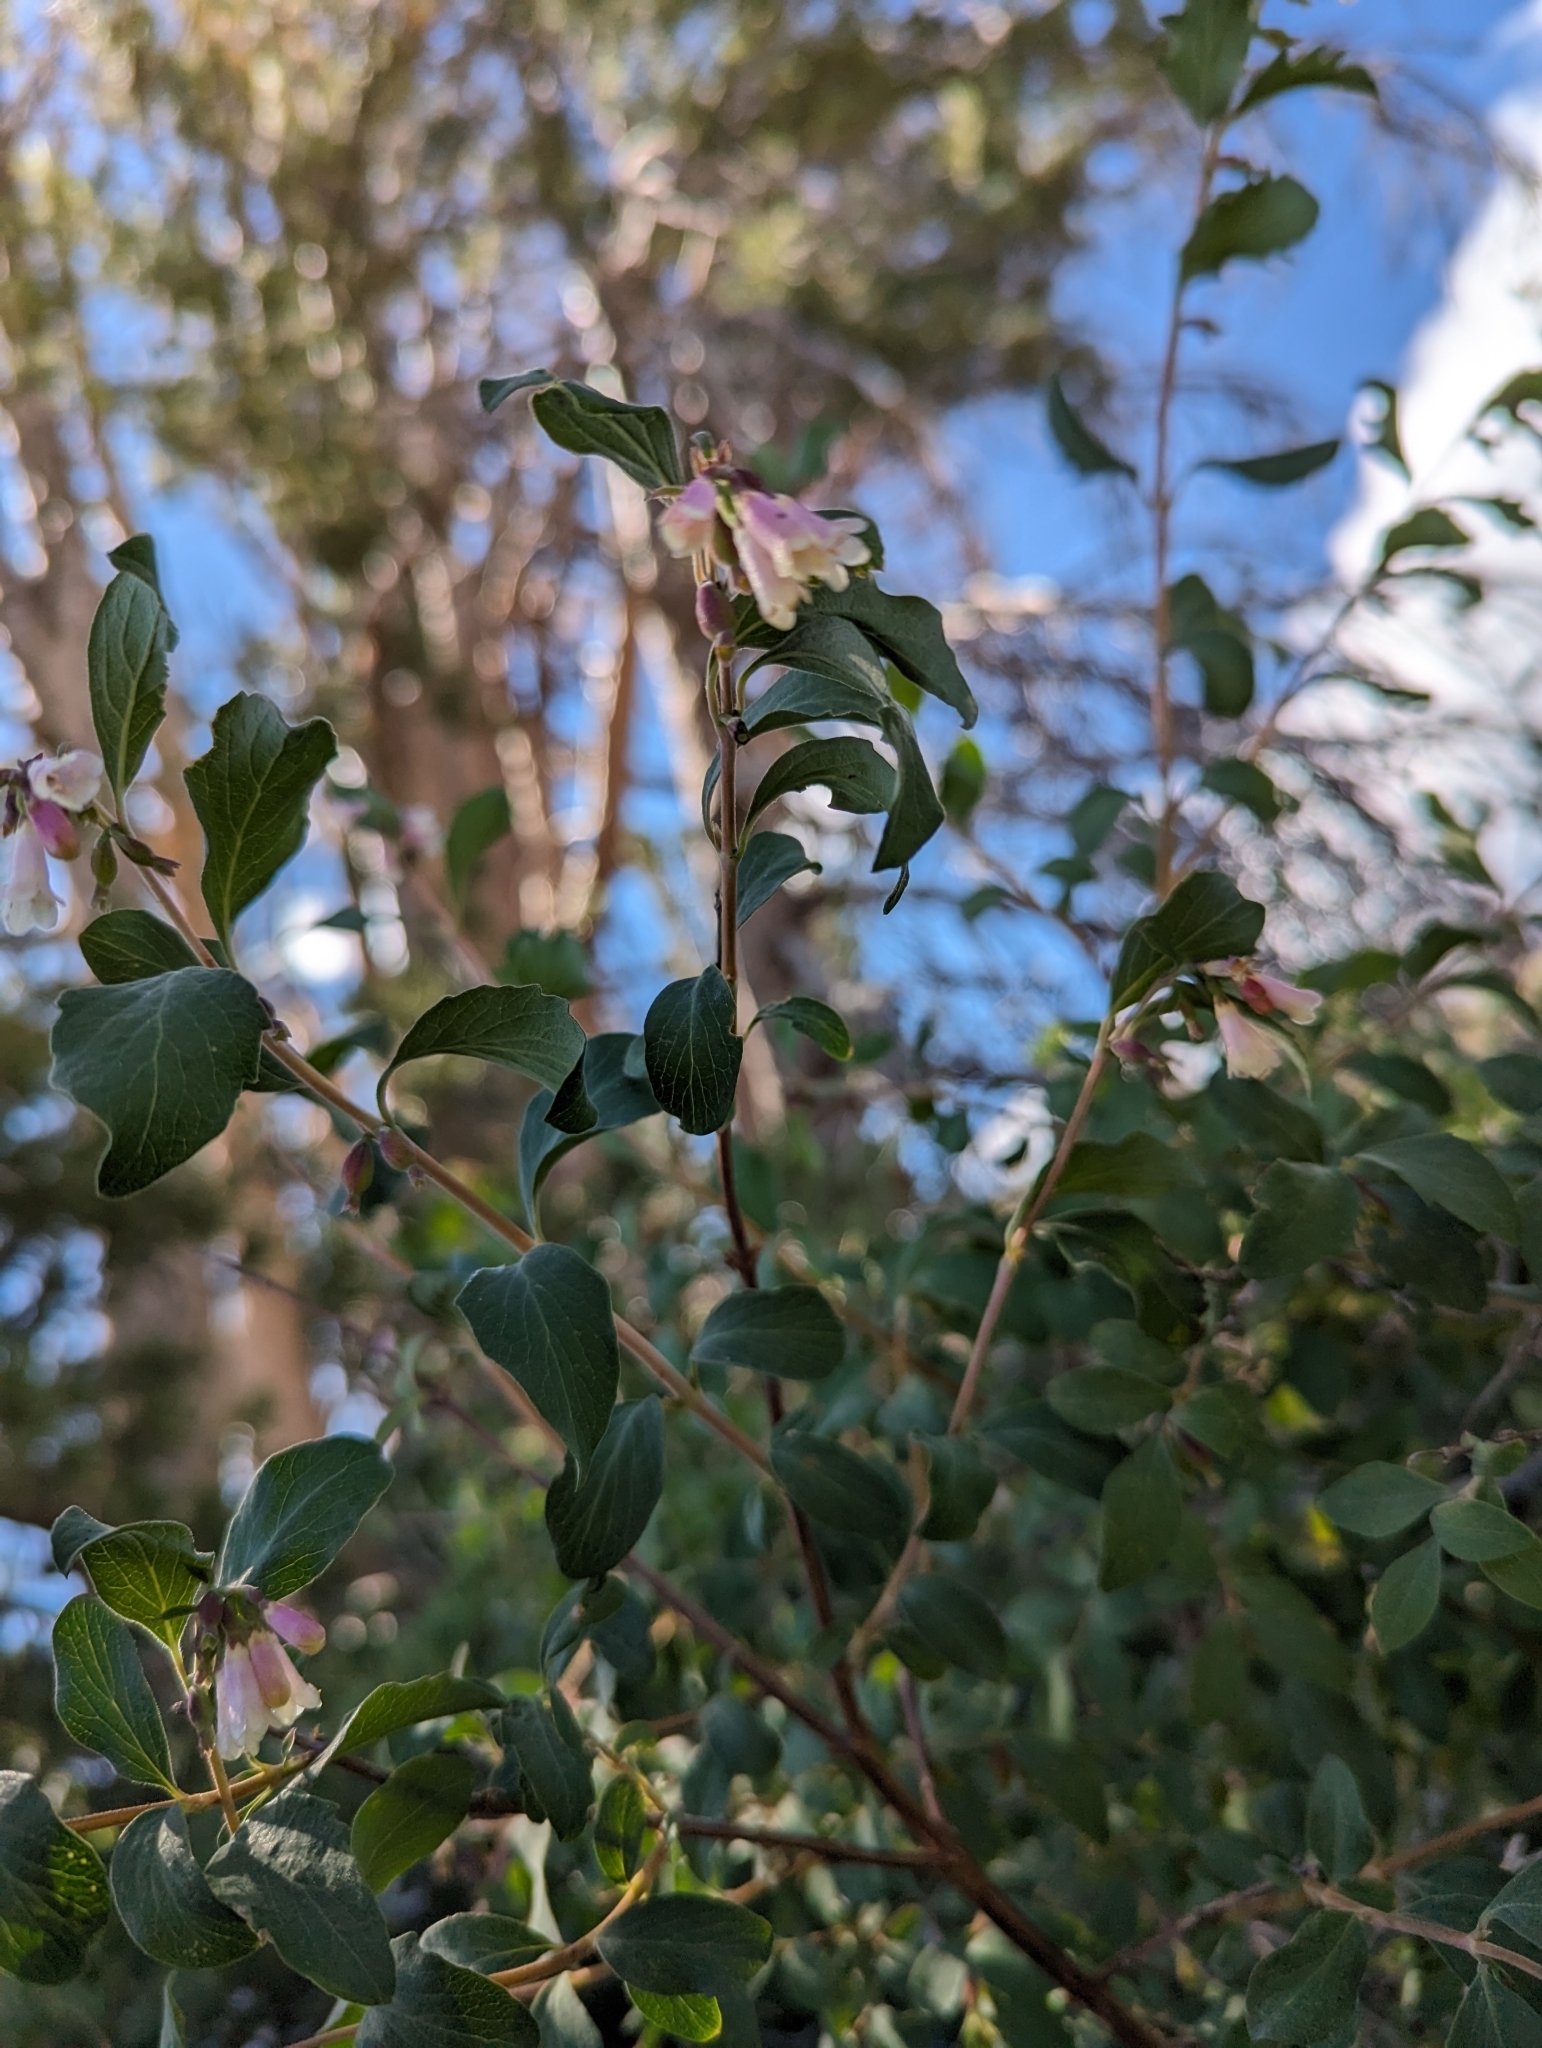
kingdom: Plantae
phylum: Tracheophyta
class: Magnoliopsida
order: Dipsacales
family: Caprifoliaceae
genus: Symphoricarpos
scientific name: Symphoricarpos rotundifolius
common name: Round-leaved snowberry
